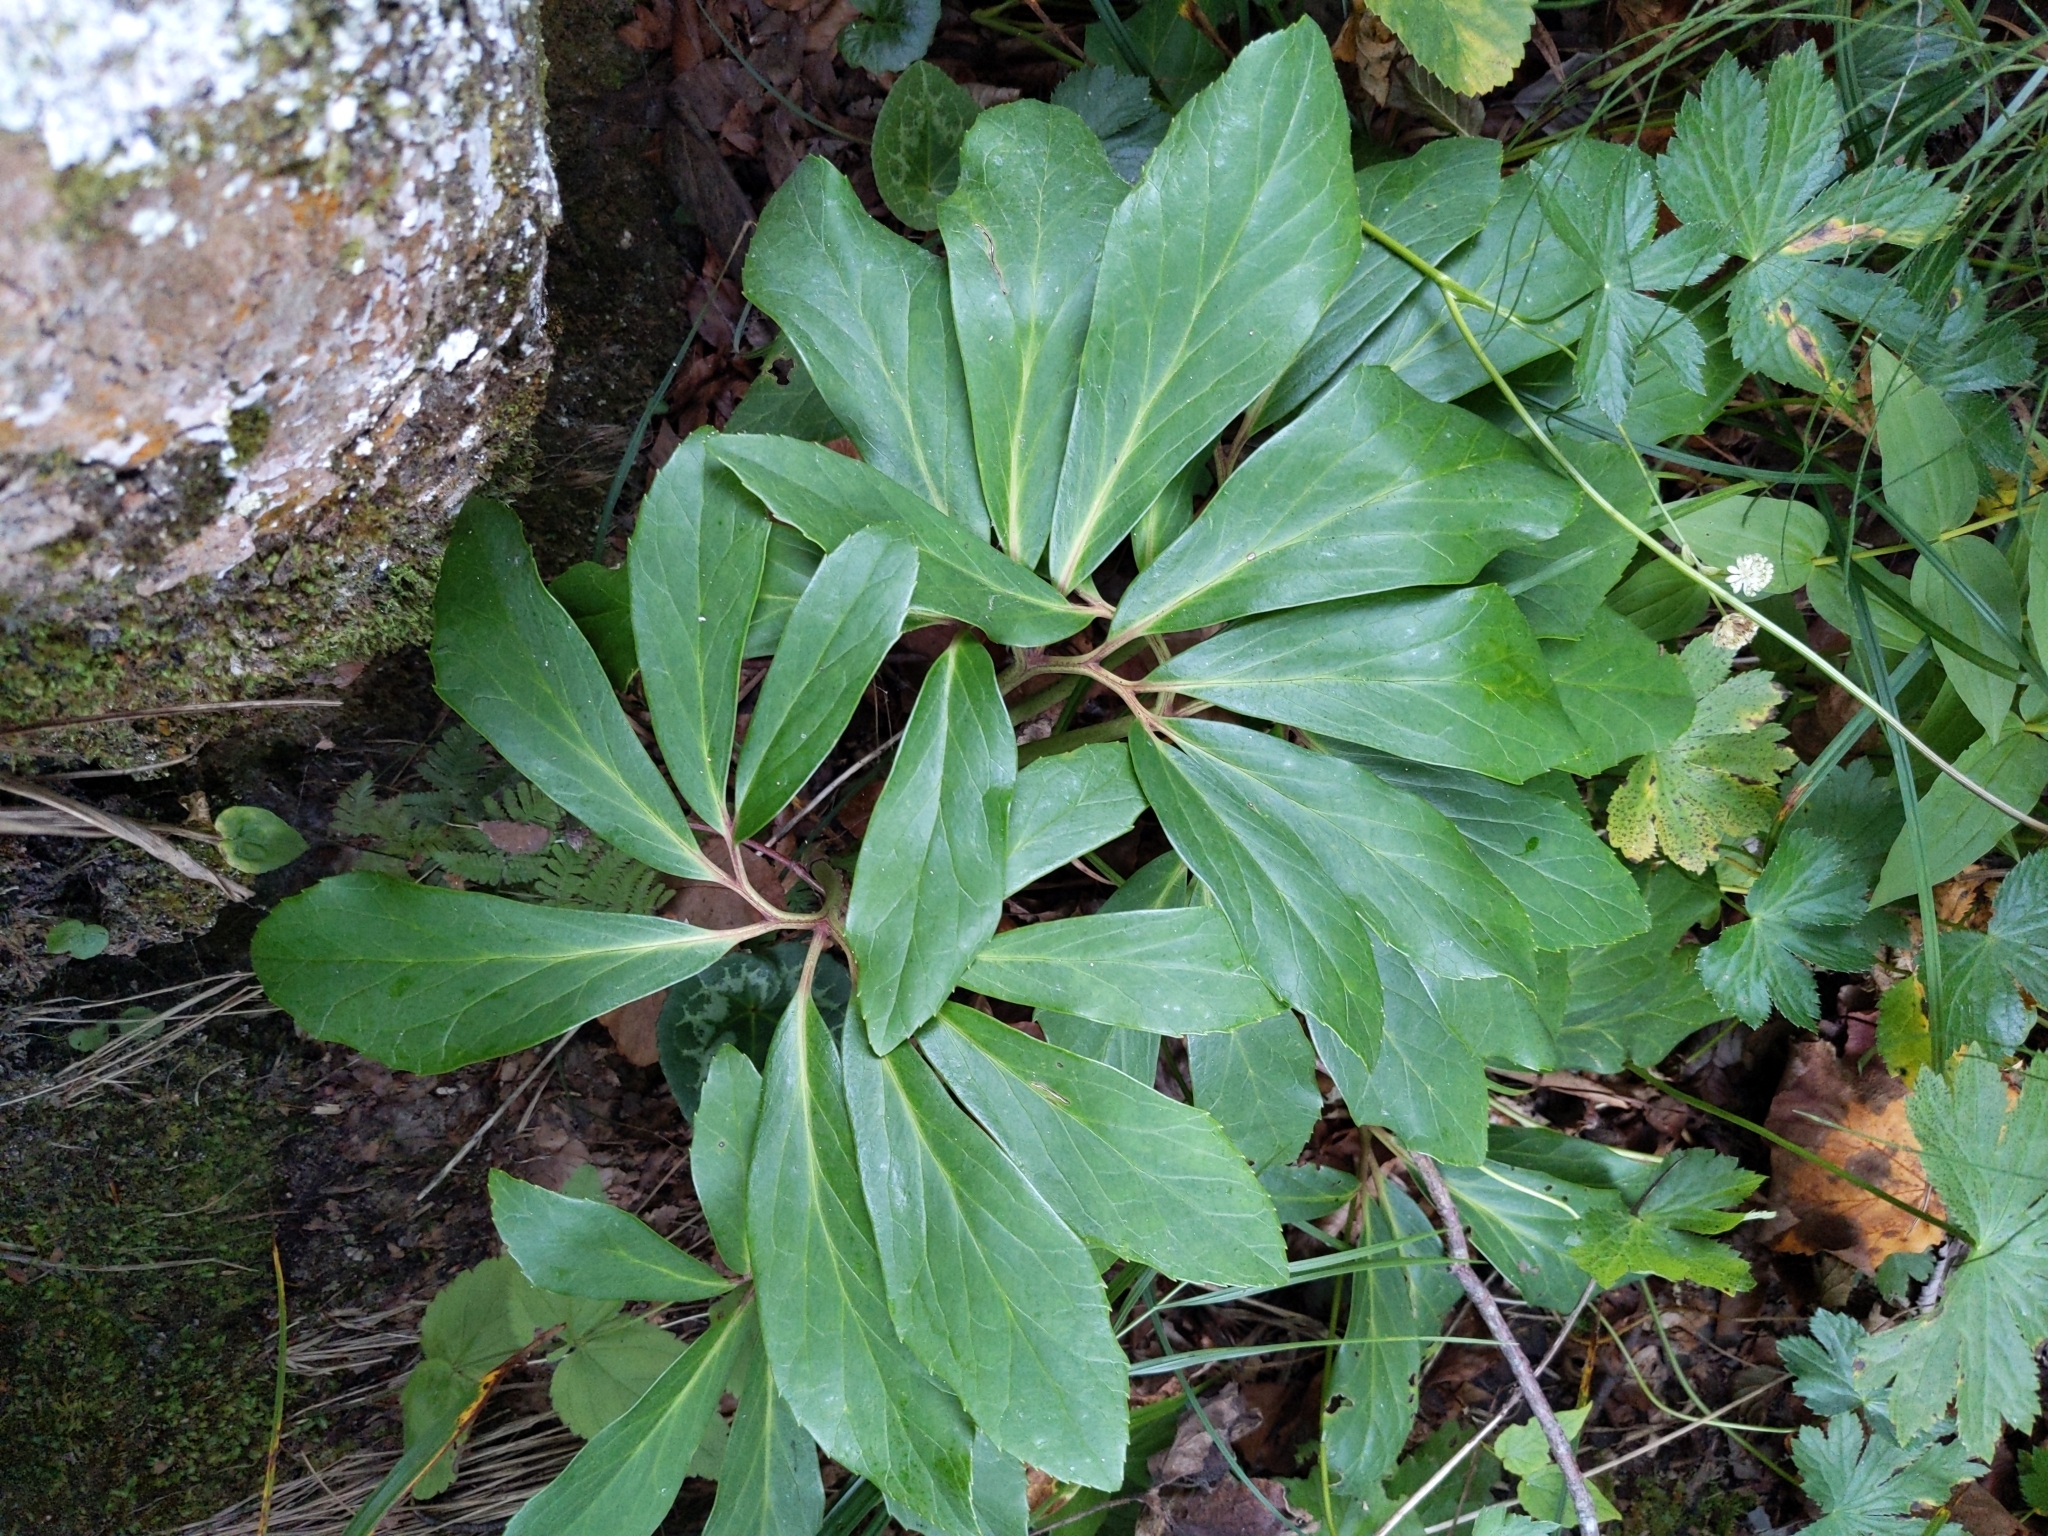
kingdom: Plantae
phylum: Tracheophyta
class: Magnoliopsida
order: Ranunculales
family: Ranunculaceae
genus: Helleborus
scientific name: Helleborus niger
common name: Black hellebore
